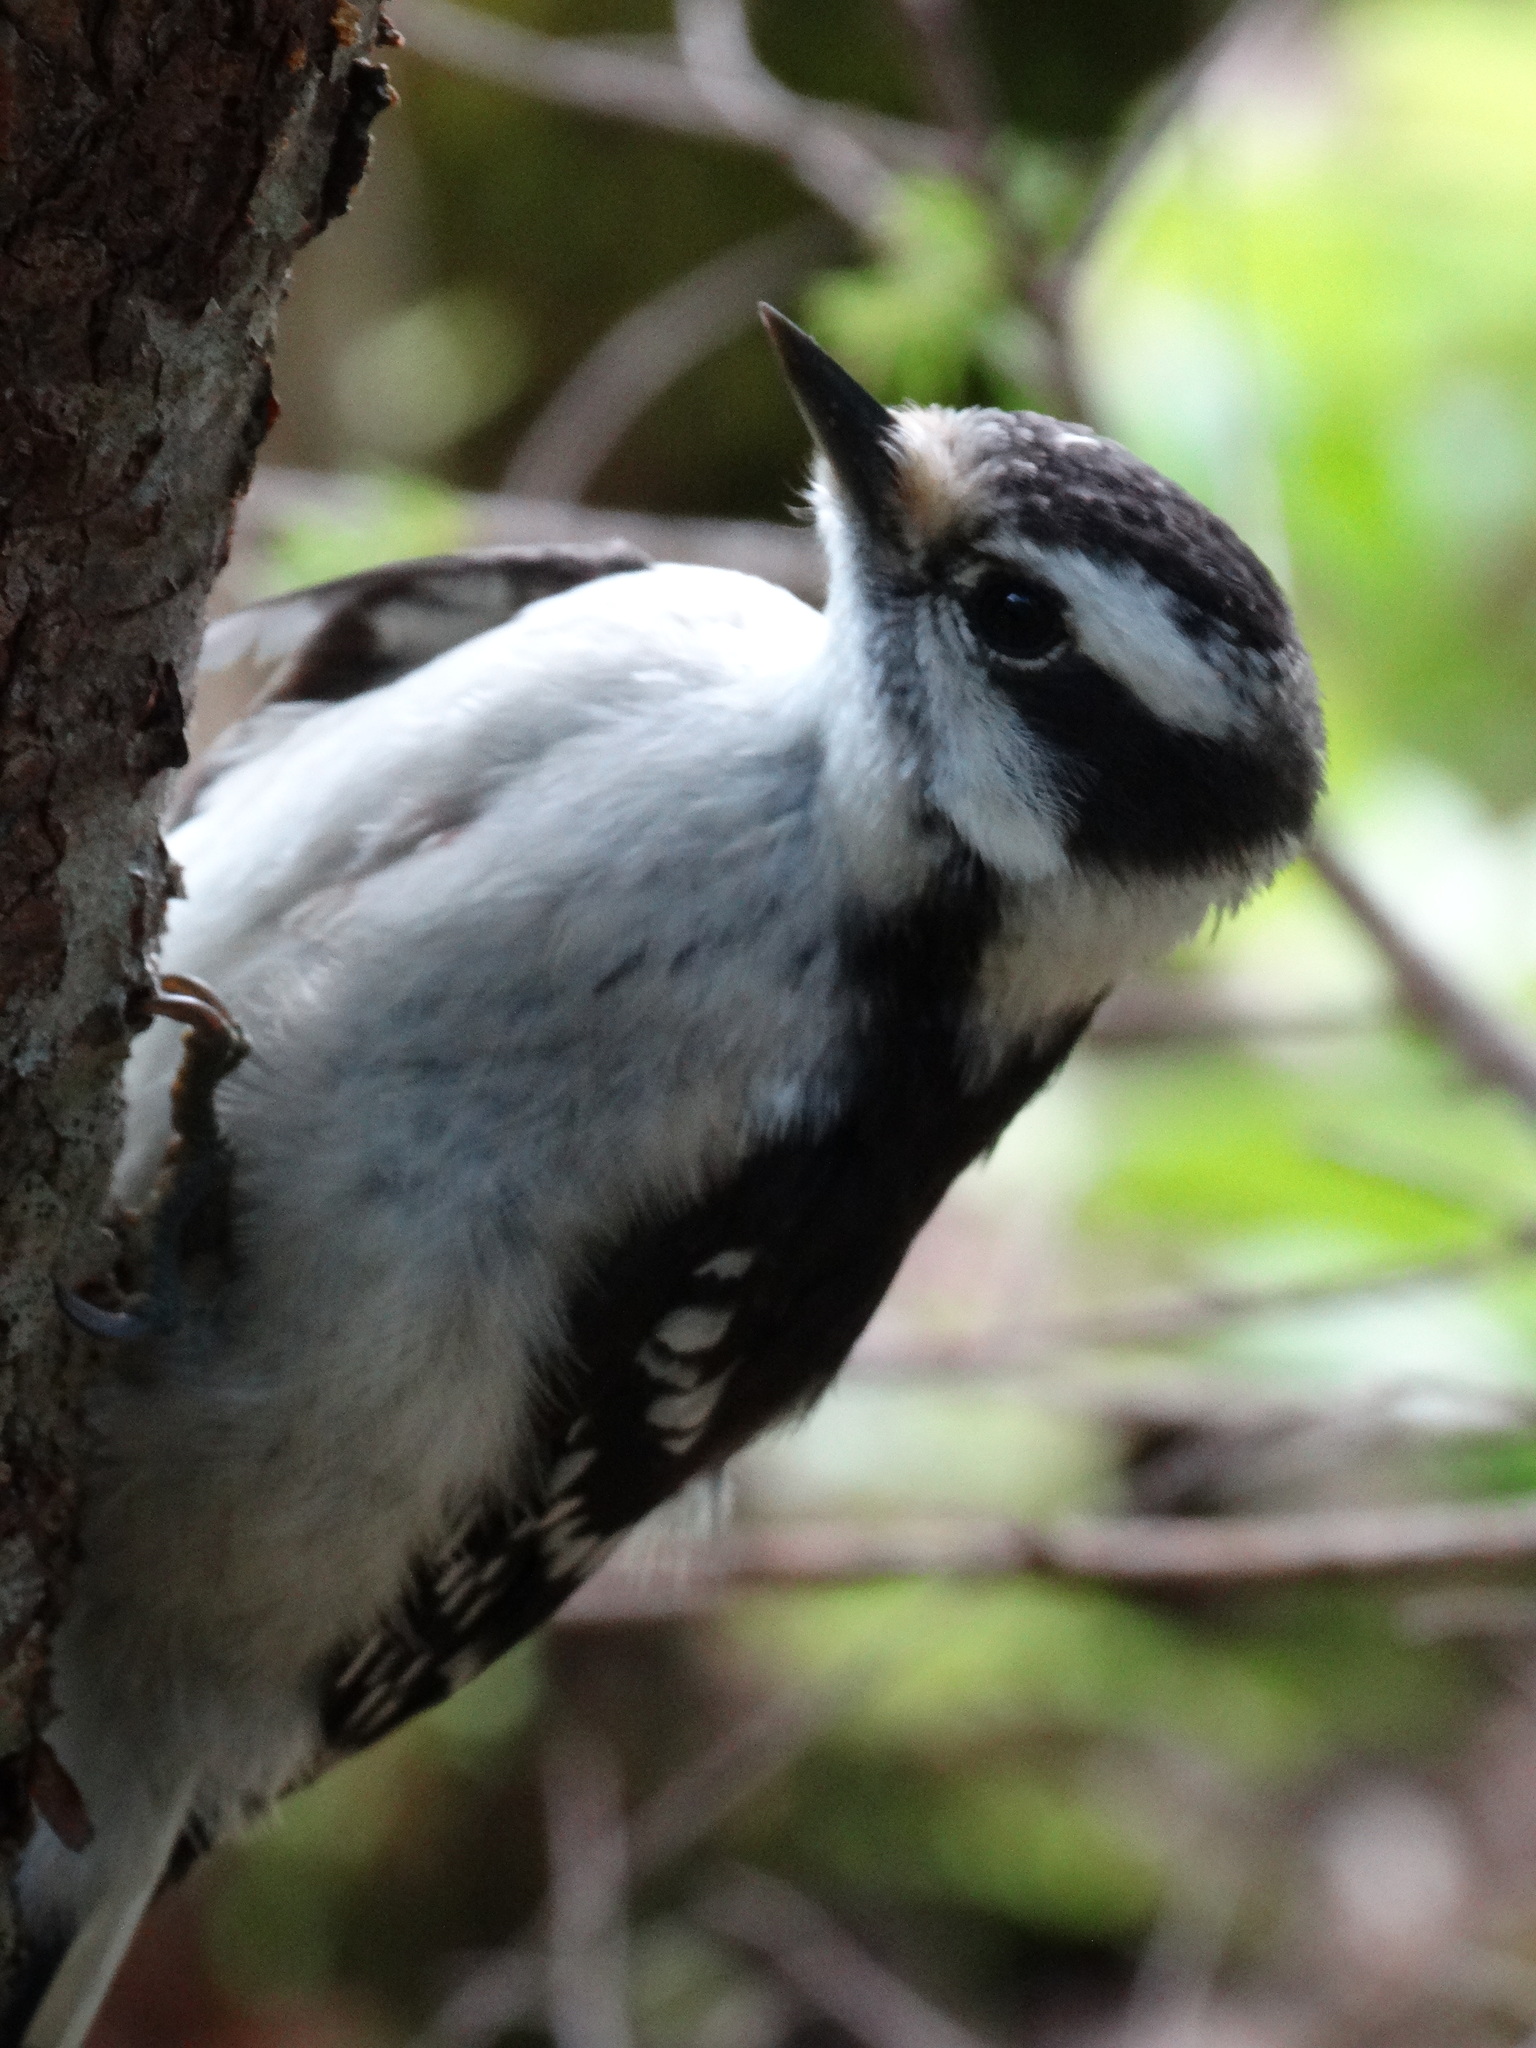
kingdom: Animalia
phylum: Chordata
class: Aves
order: Piciformes
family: Picidae
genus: Dryobates
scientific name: Dryobates pubescens
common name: Downy woodpecker
